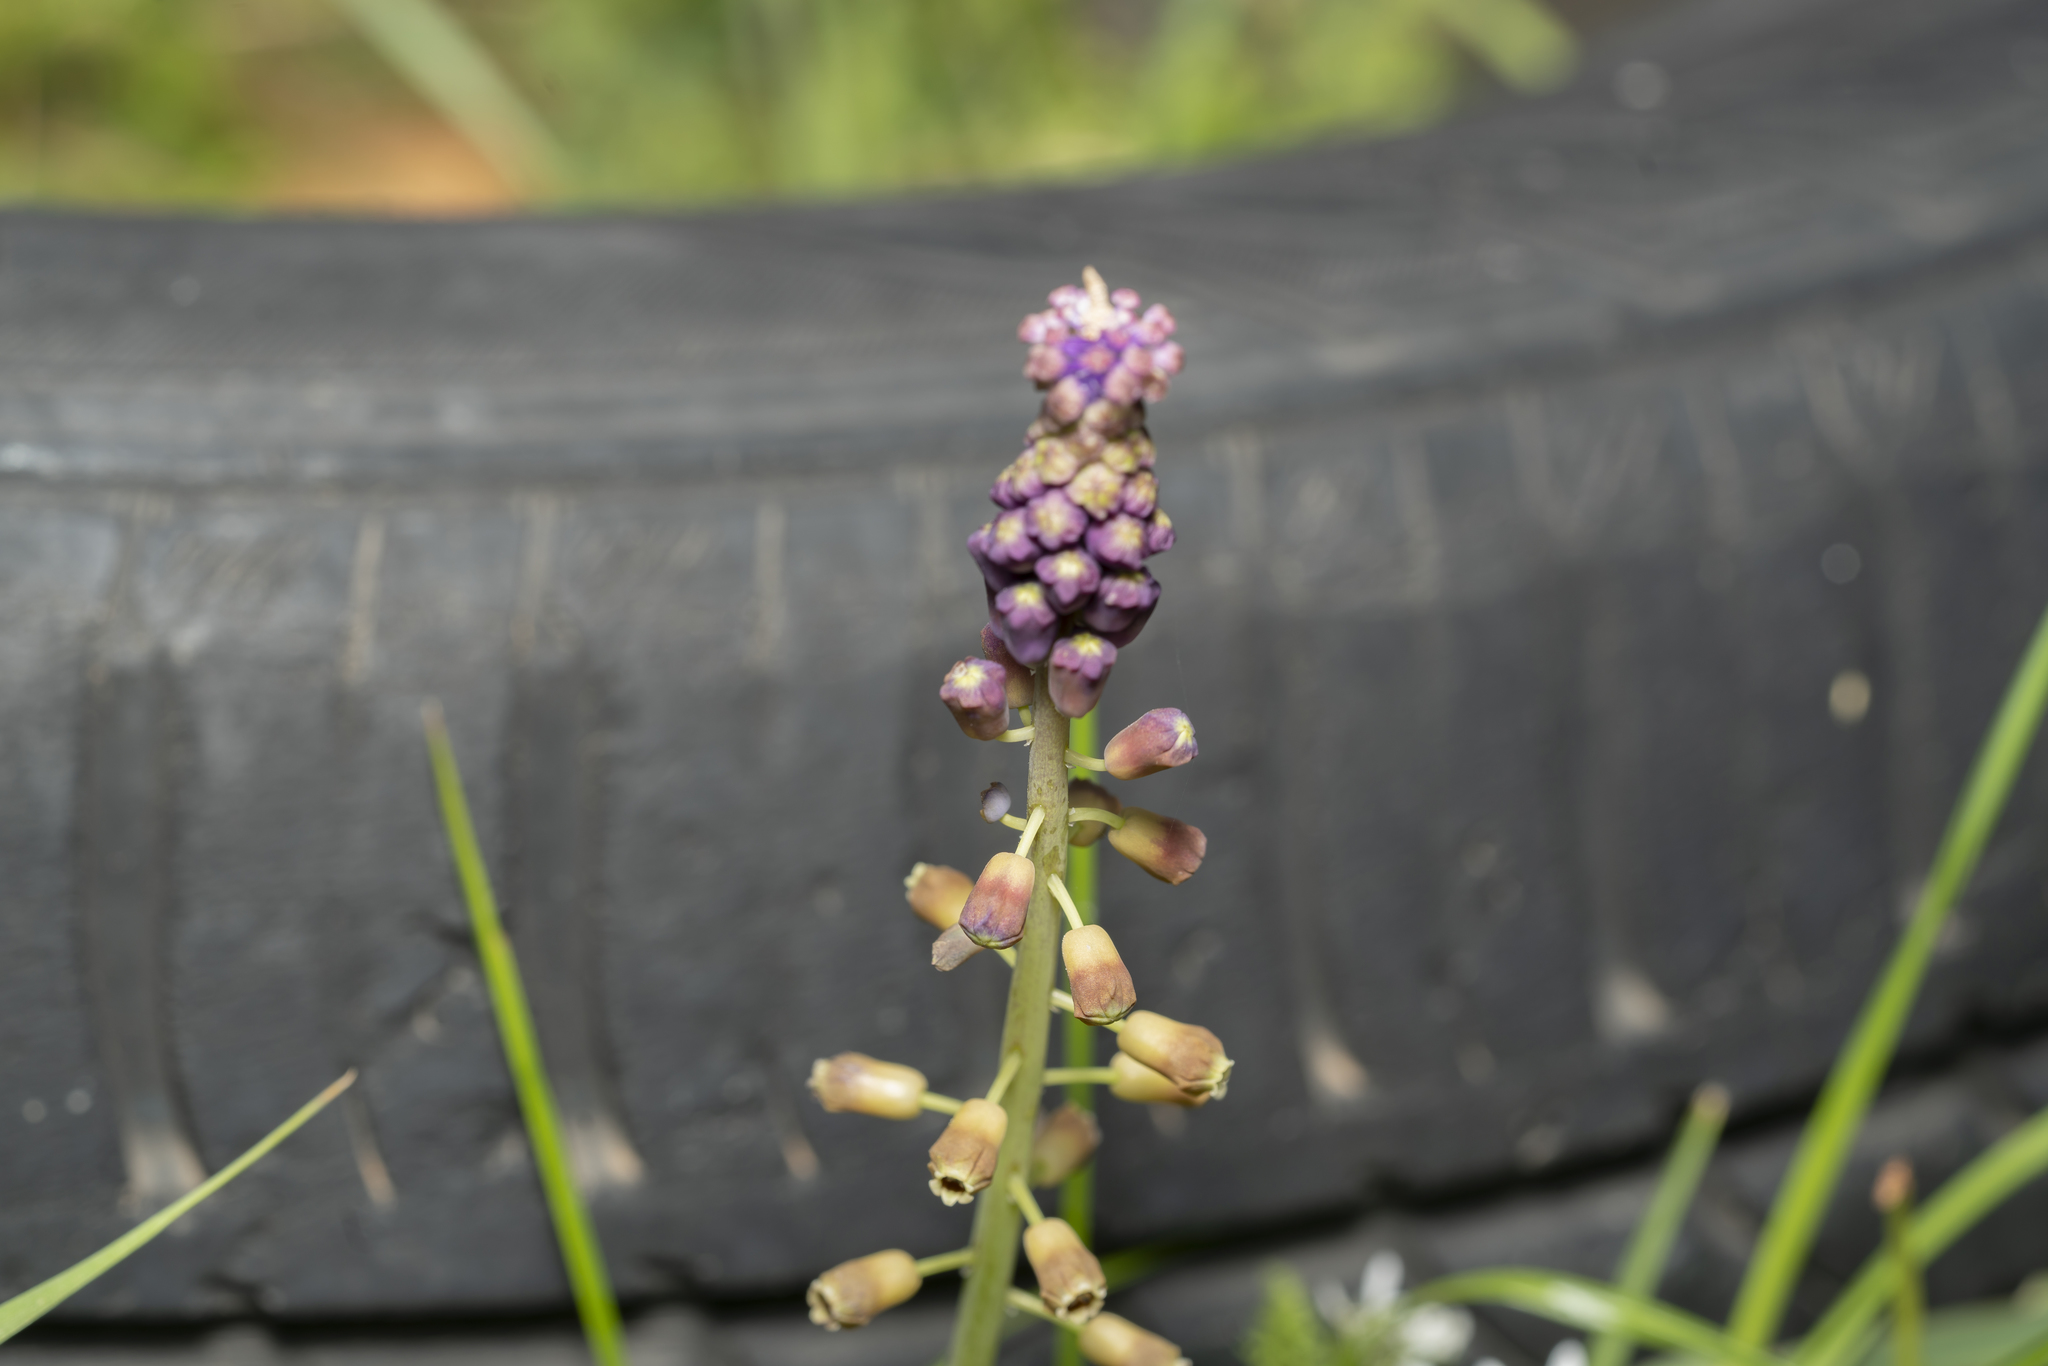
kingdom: Plantae
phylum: Tracheophyta
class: Liliopsida
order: Asparagales
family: Asparagaceae
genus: Muscari
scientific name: Muscari comosum
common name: Tassel hyacinth
